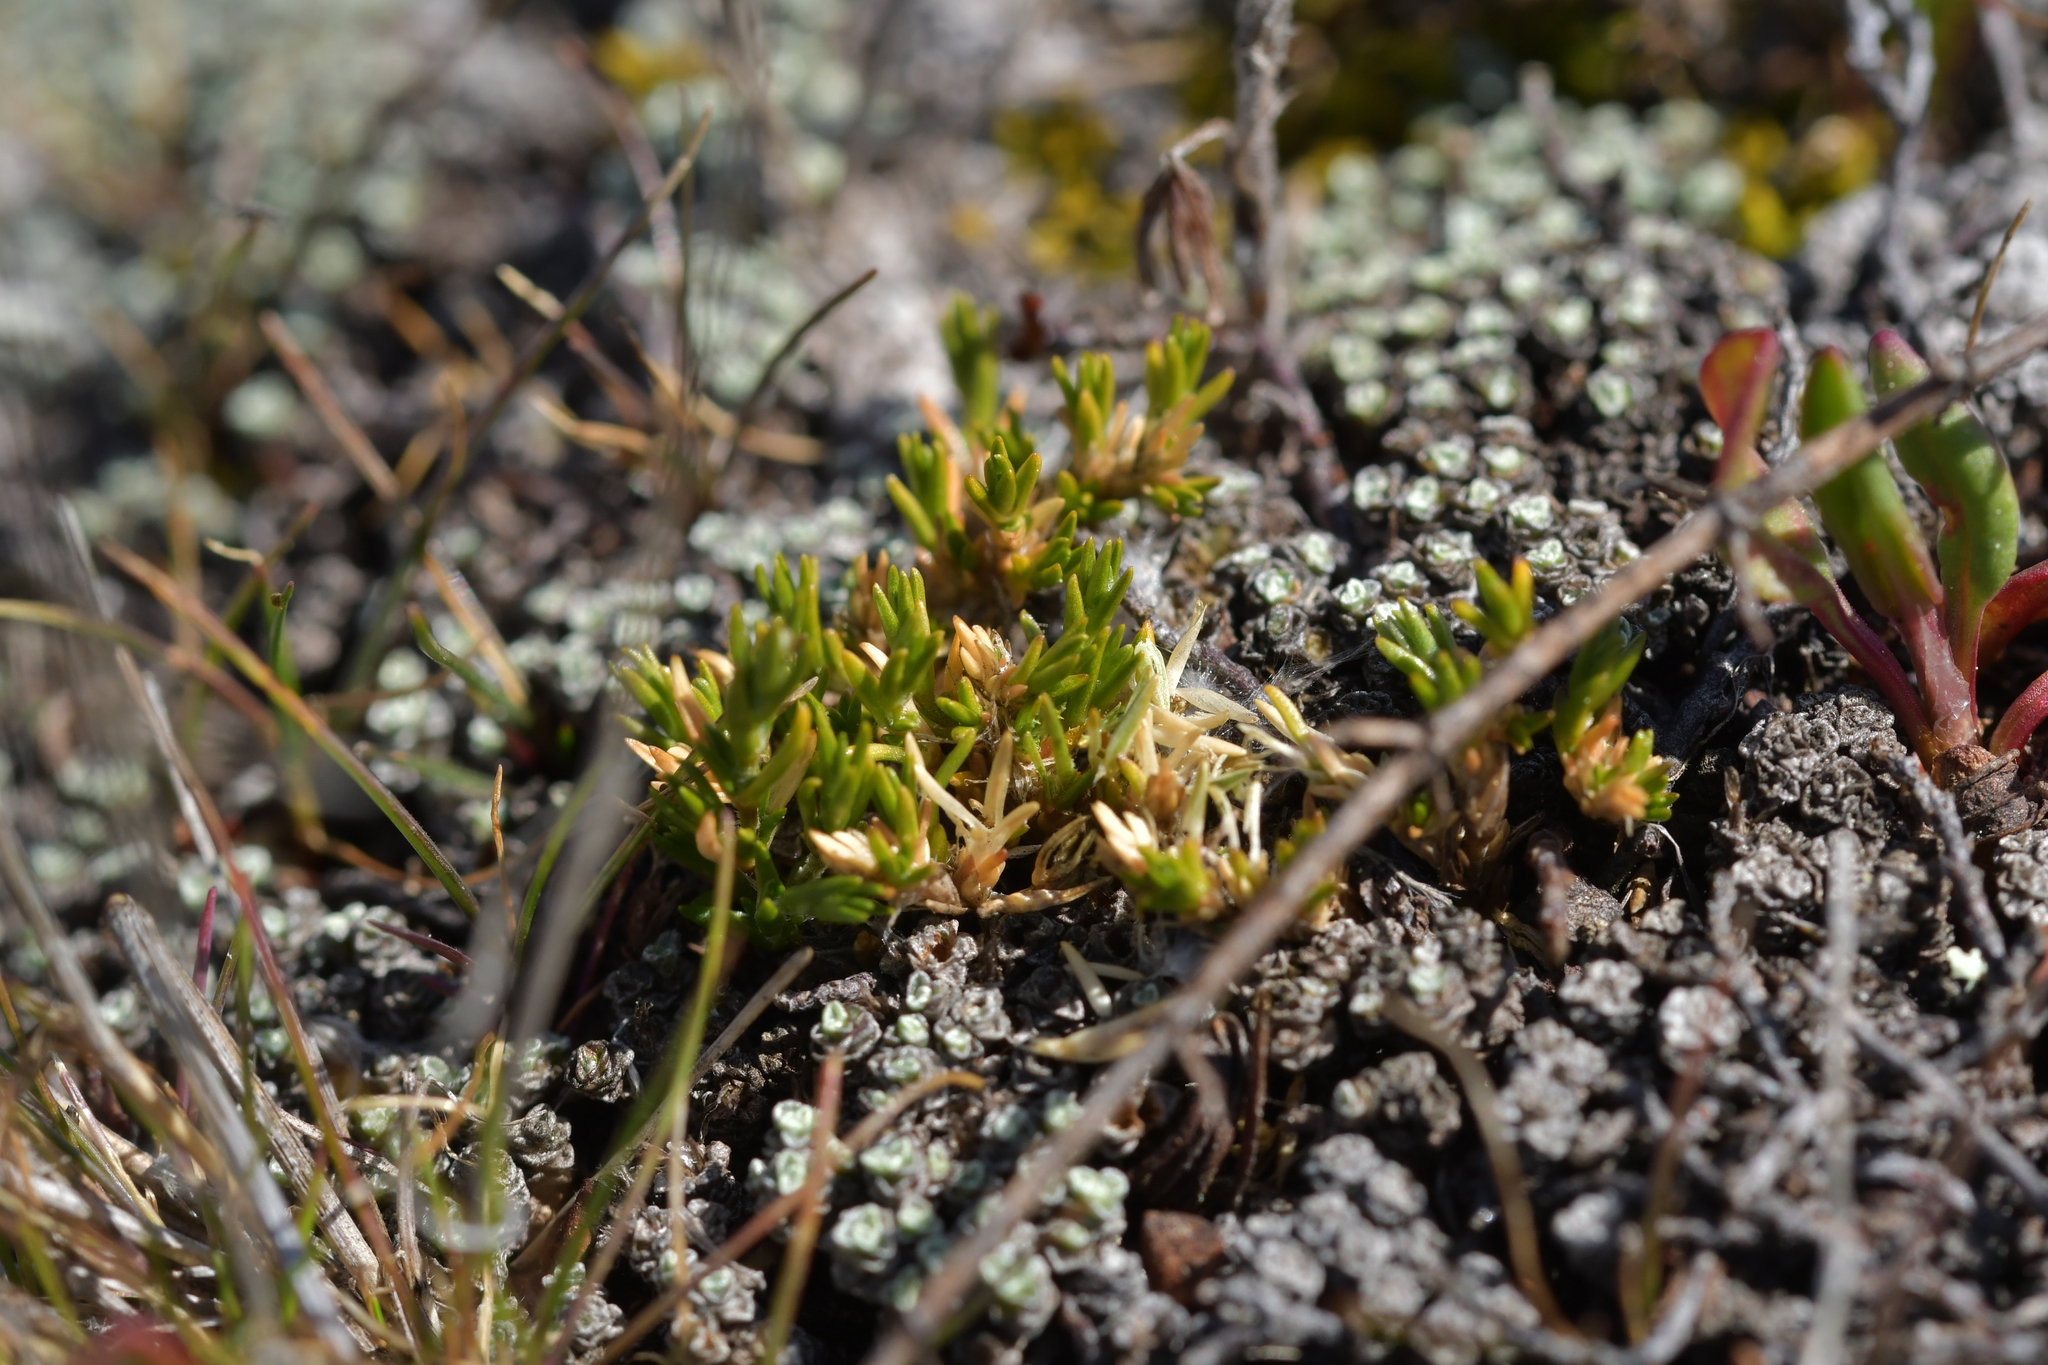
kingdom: Plantae
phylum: Tracheophyta
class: Magnoliopsida
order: Caryophyllales
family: Caryophyllaceae
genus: Stellaria
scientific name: Stellaria gracilenta
